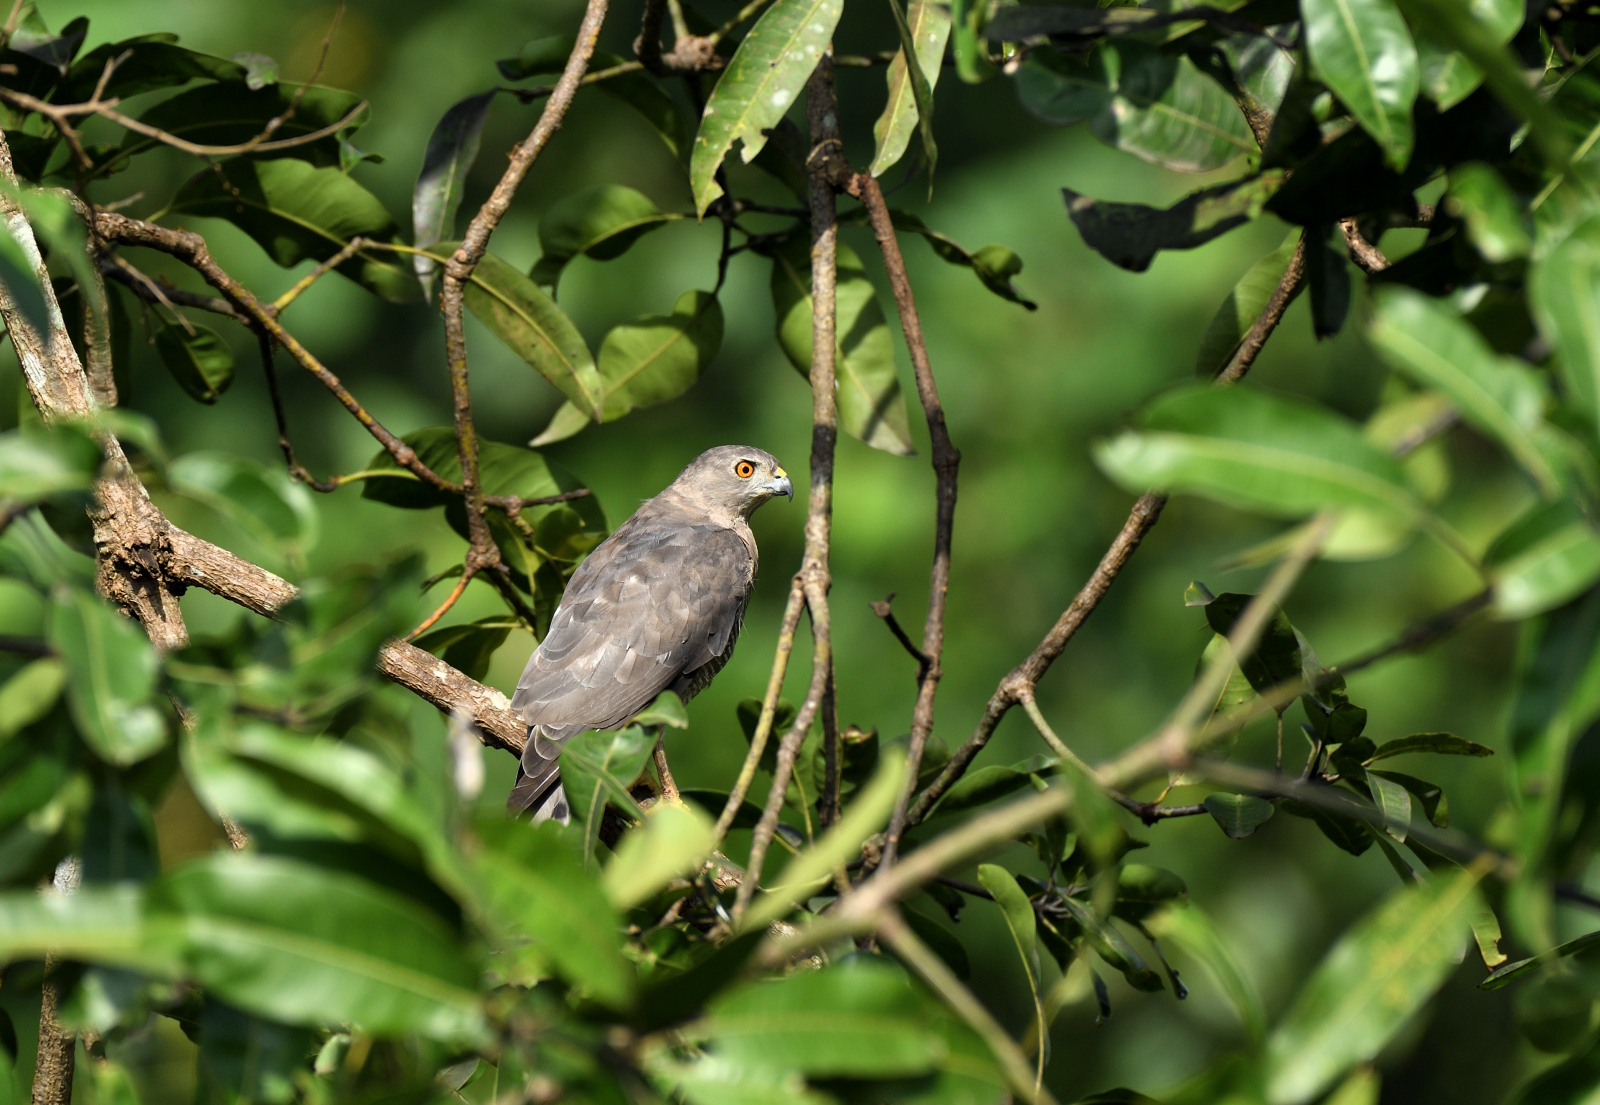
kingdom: Animalia
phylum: Chordata
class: Aves
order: Accipitriformes
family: Accipitridae
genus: Accipiter
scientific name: Accipiter badius
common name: Shikra
